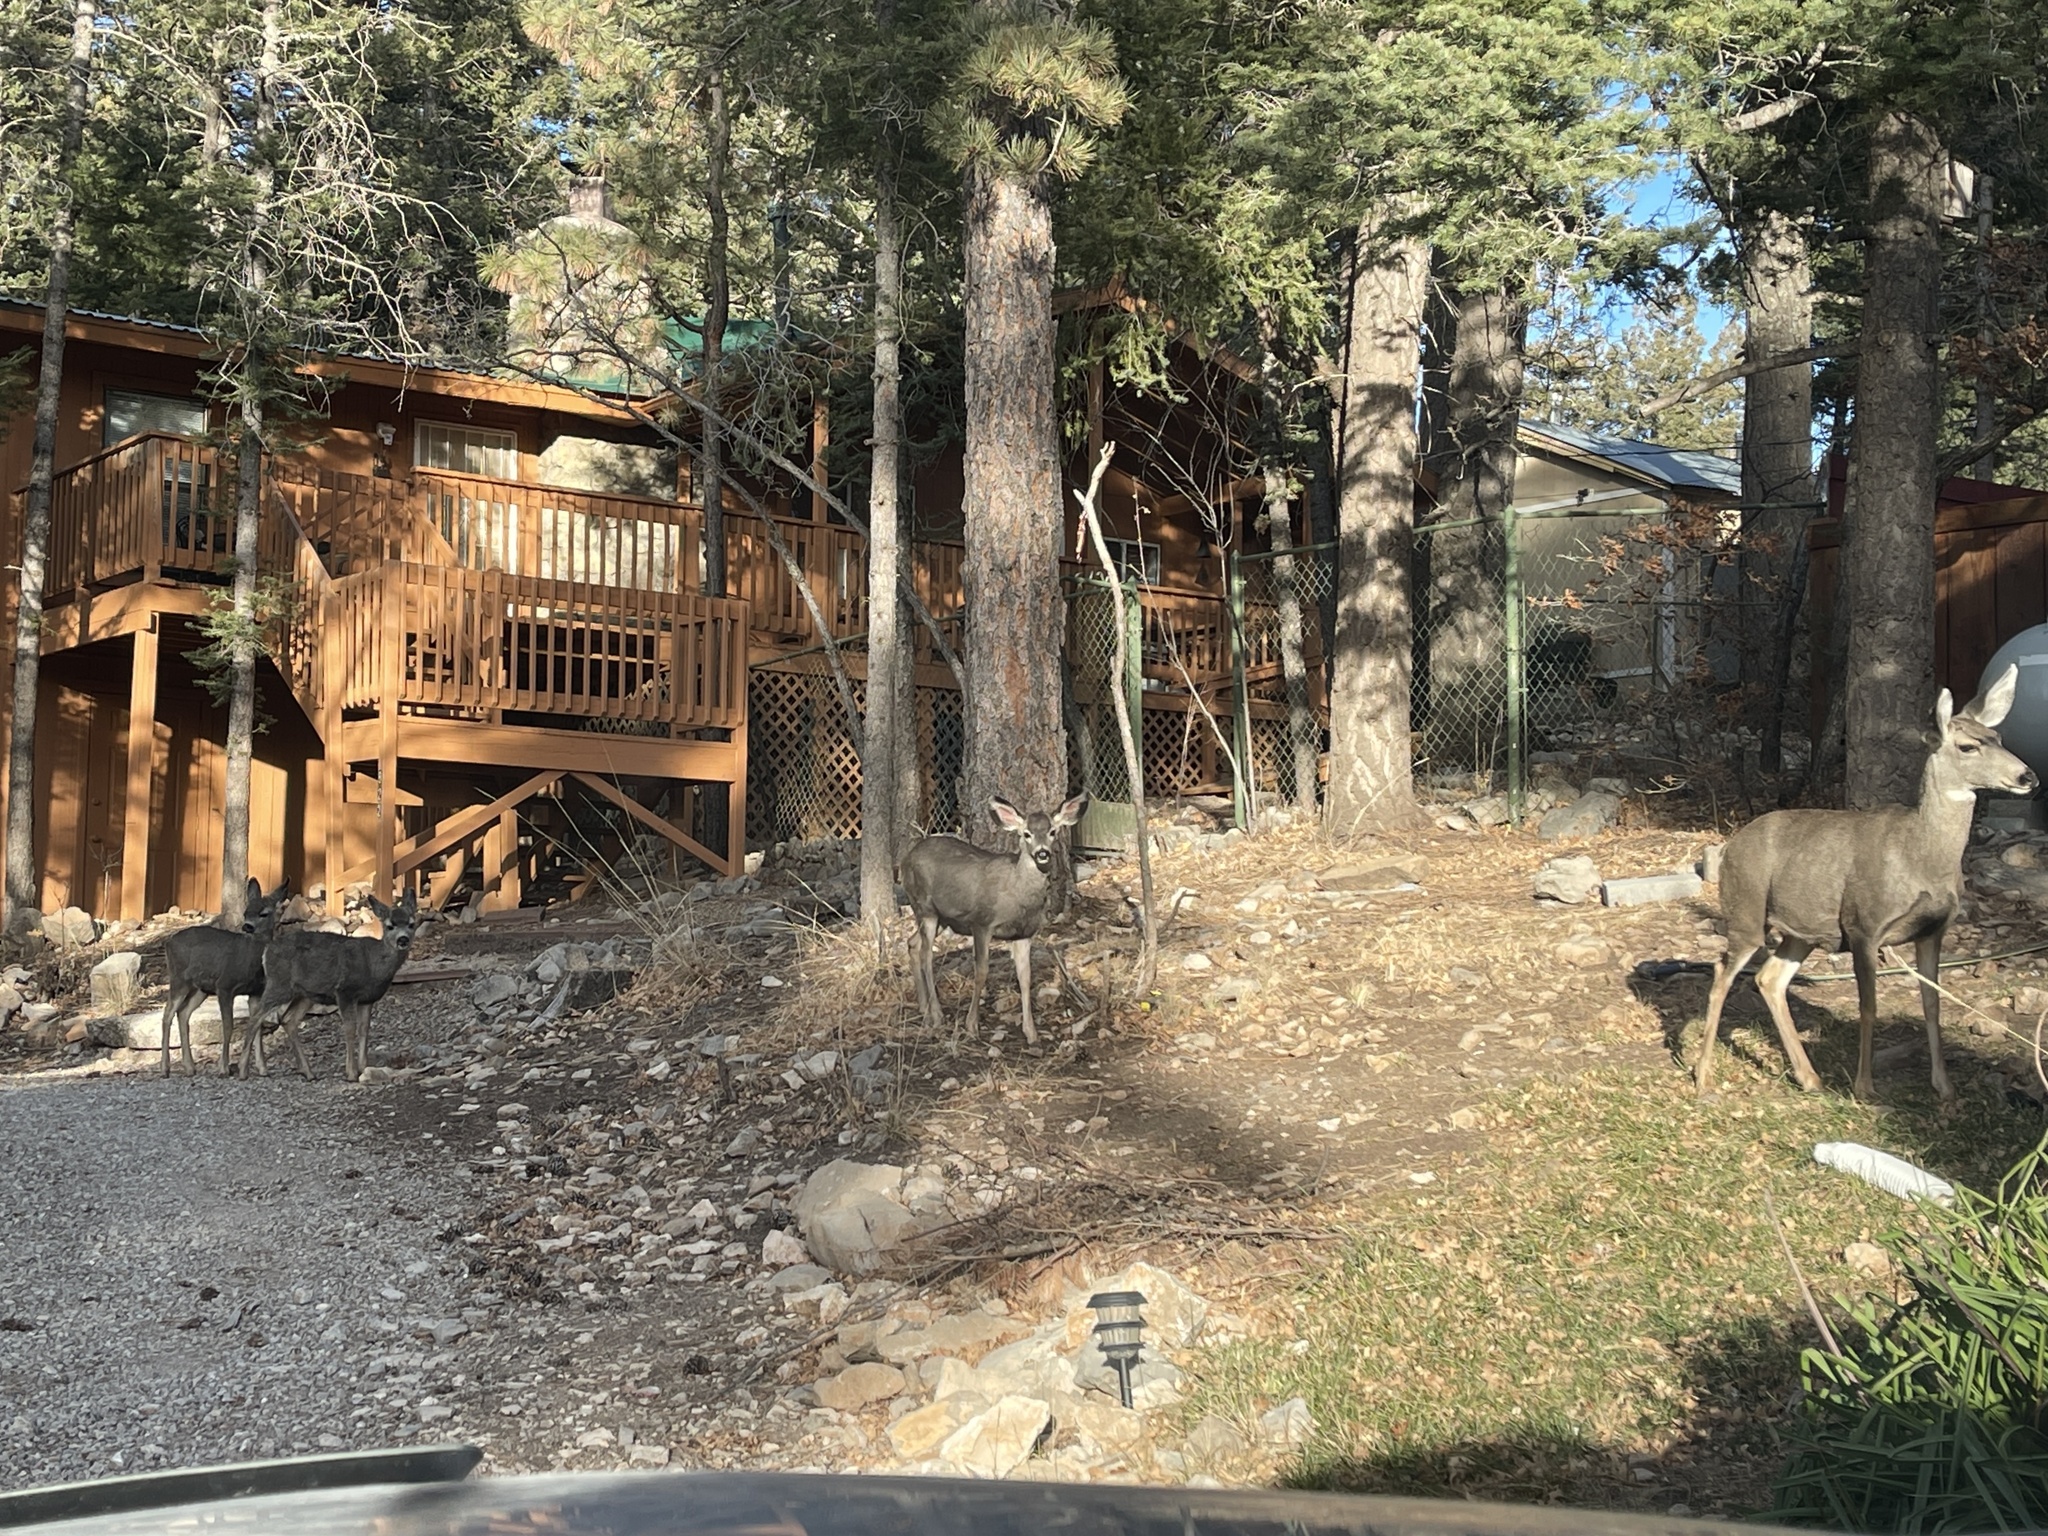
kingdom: Animalia
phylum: Chordata
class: Mammalia
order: Artiodactyla
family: Cervidae
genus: Odocoileus
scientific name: Odocoileus hemionus
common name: Mule deer
